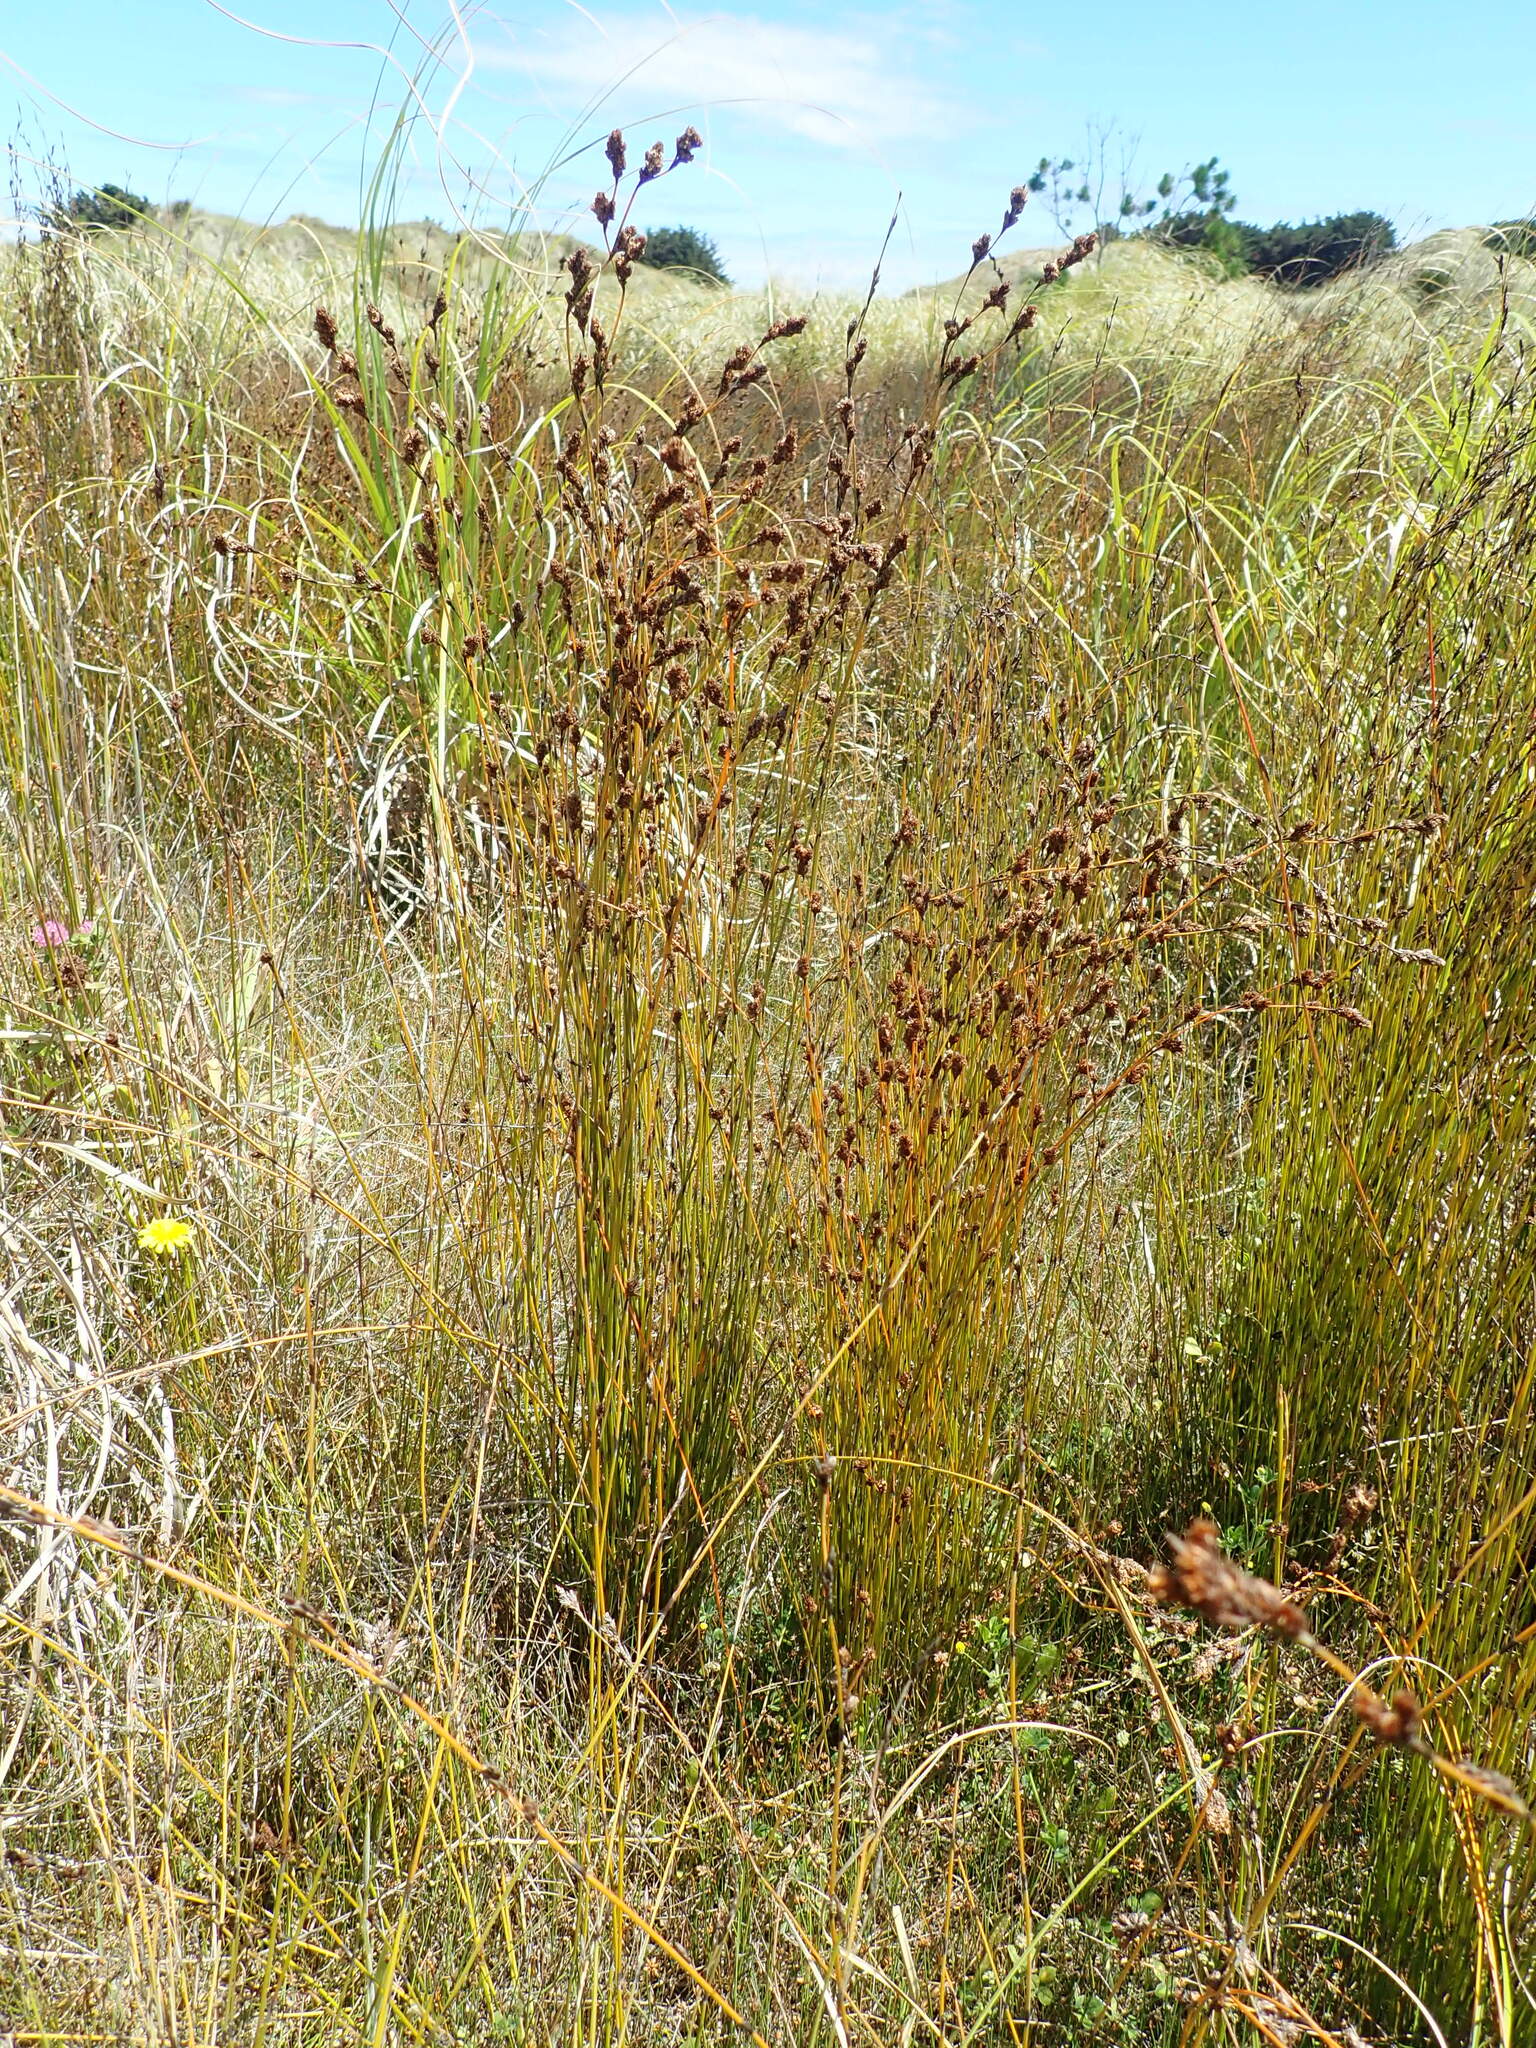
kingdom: Plantae
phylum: Tracheophyta
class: Liliopsida
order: Poales
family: Restionaceae
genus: Apodasmia
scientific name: Apodasmia similis
